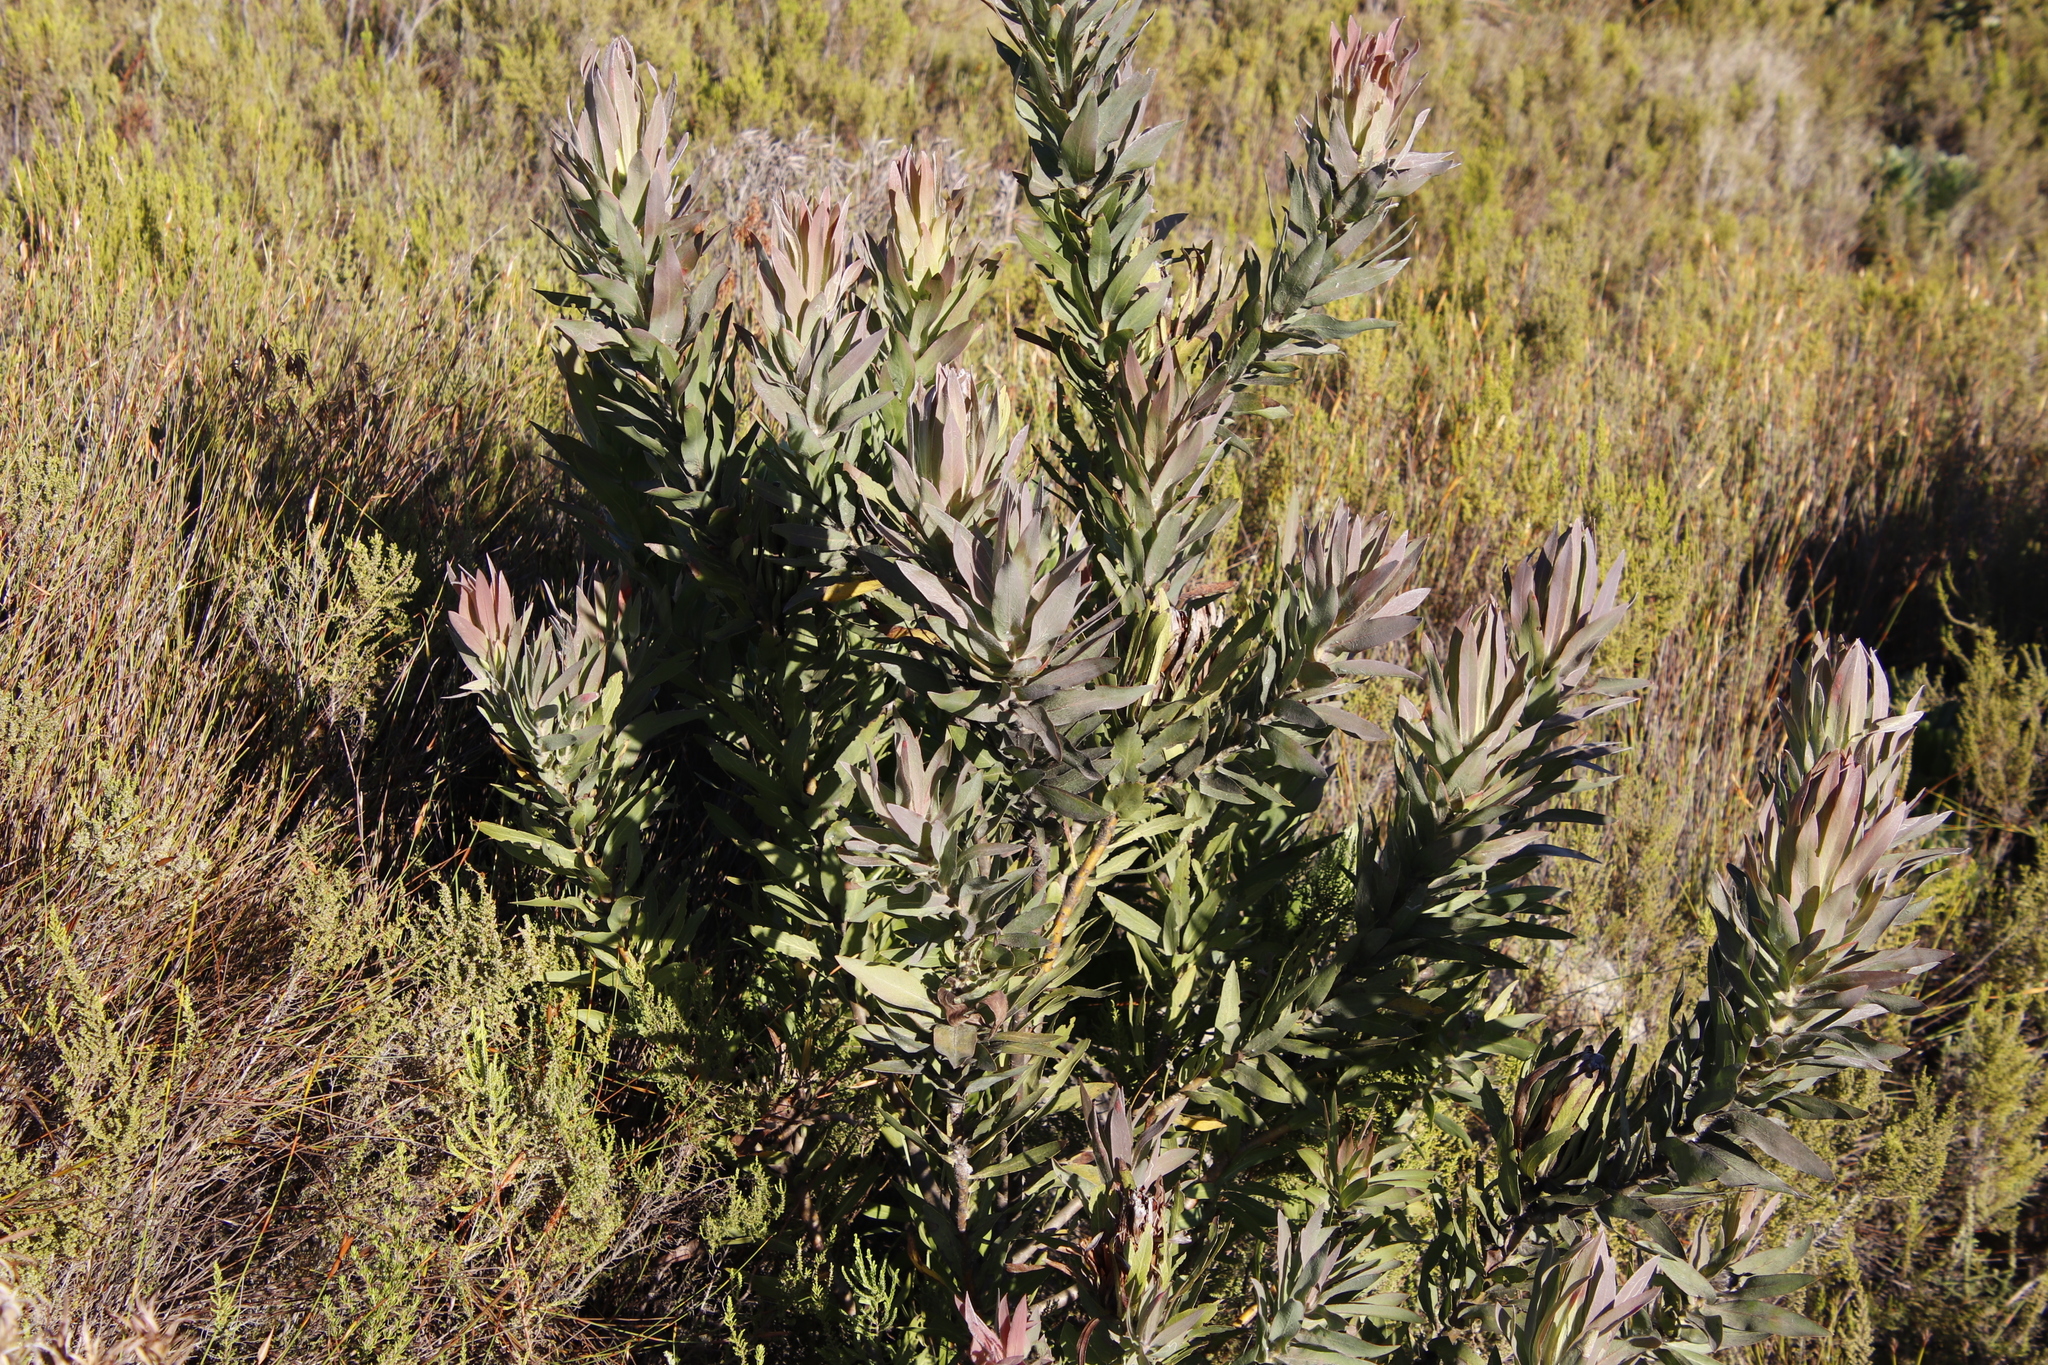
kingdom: Plantae
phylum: Tracheophyta
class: Magnoliopsida
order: Proteales
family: Proteaceae
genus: Protea
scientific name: Protea coronata
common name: Green sugarbush
